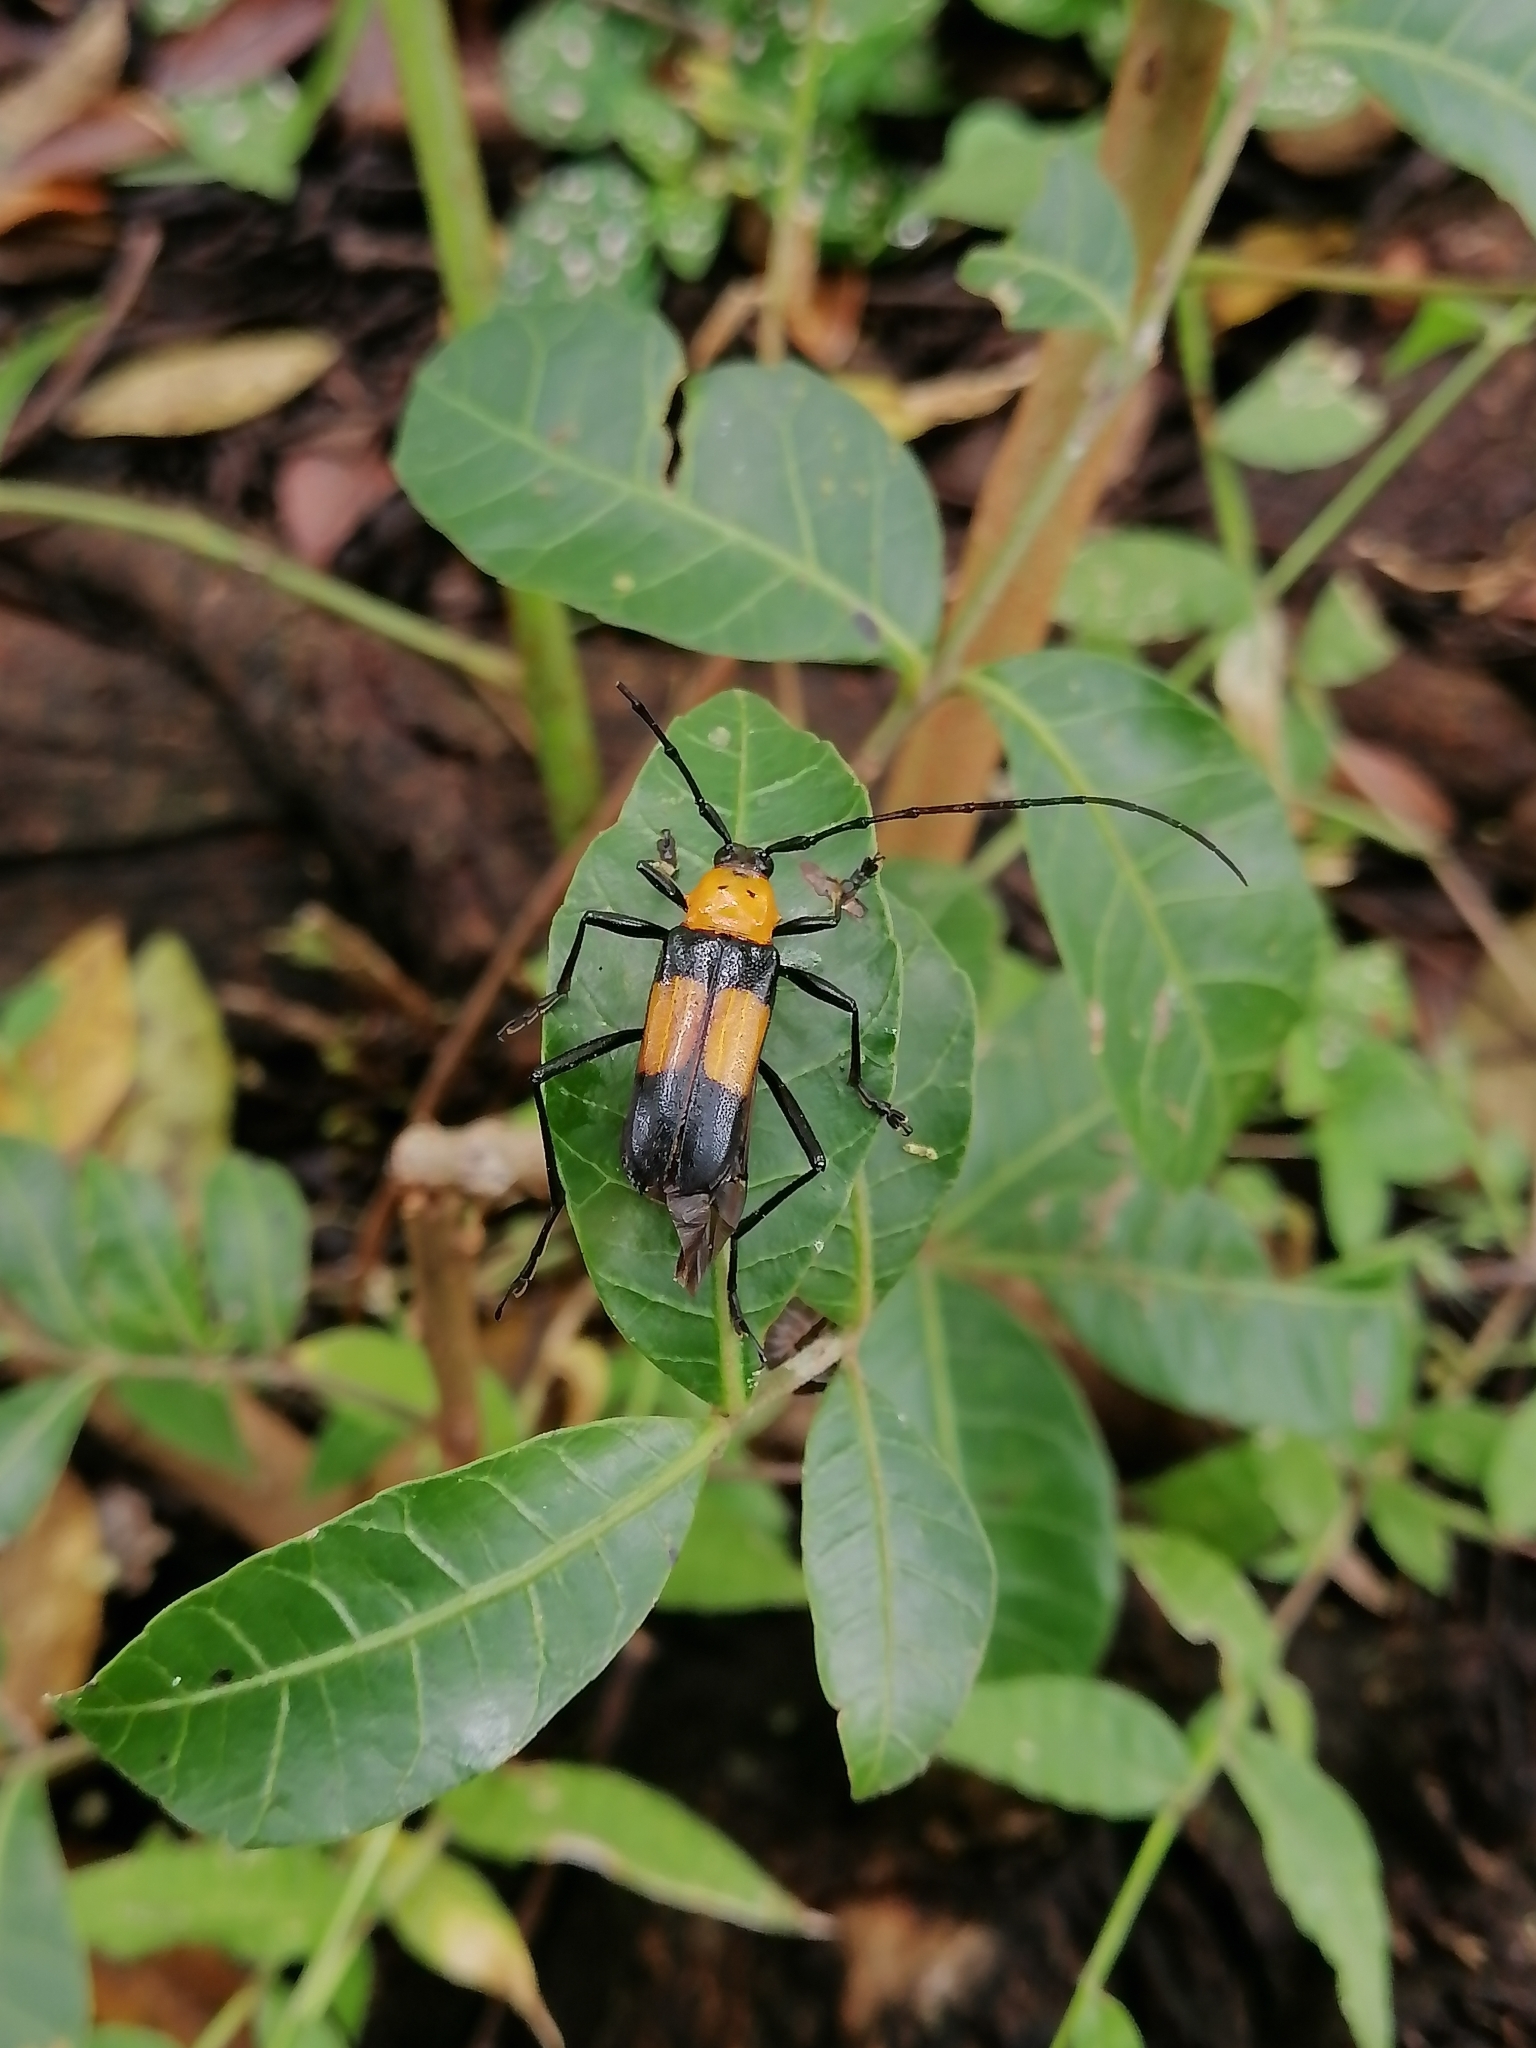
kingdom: Animalia
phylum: Arthropoda
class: Insecta
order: Coleoptera
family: Cerambycidae
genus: Gambria
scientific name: Gambria bicolor
